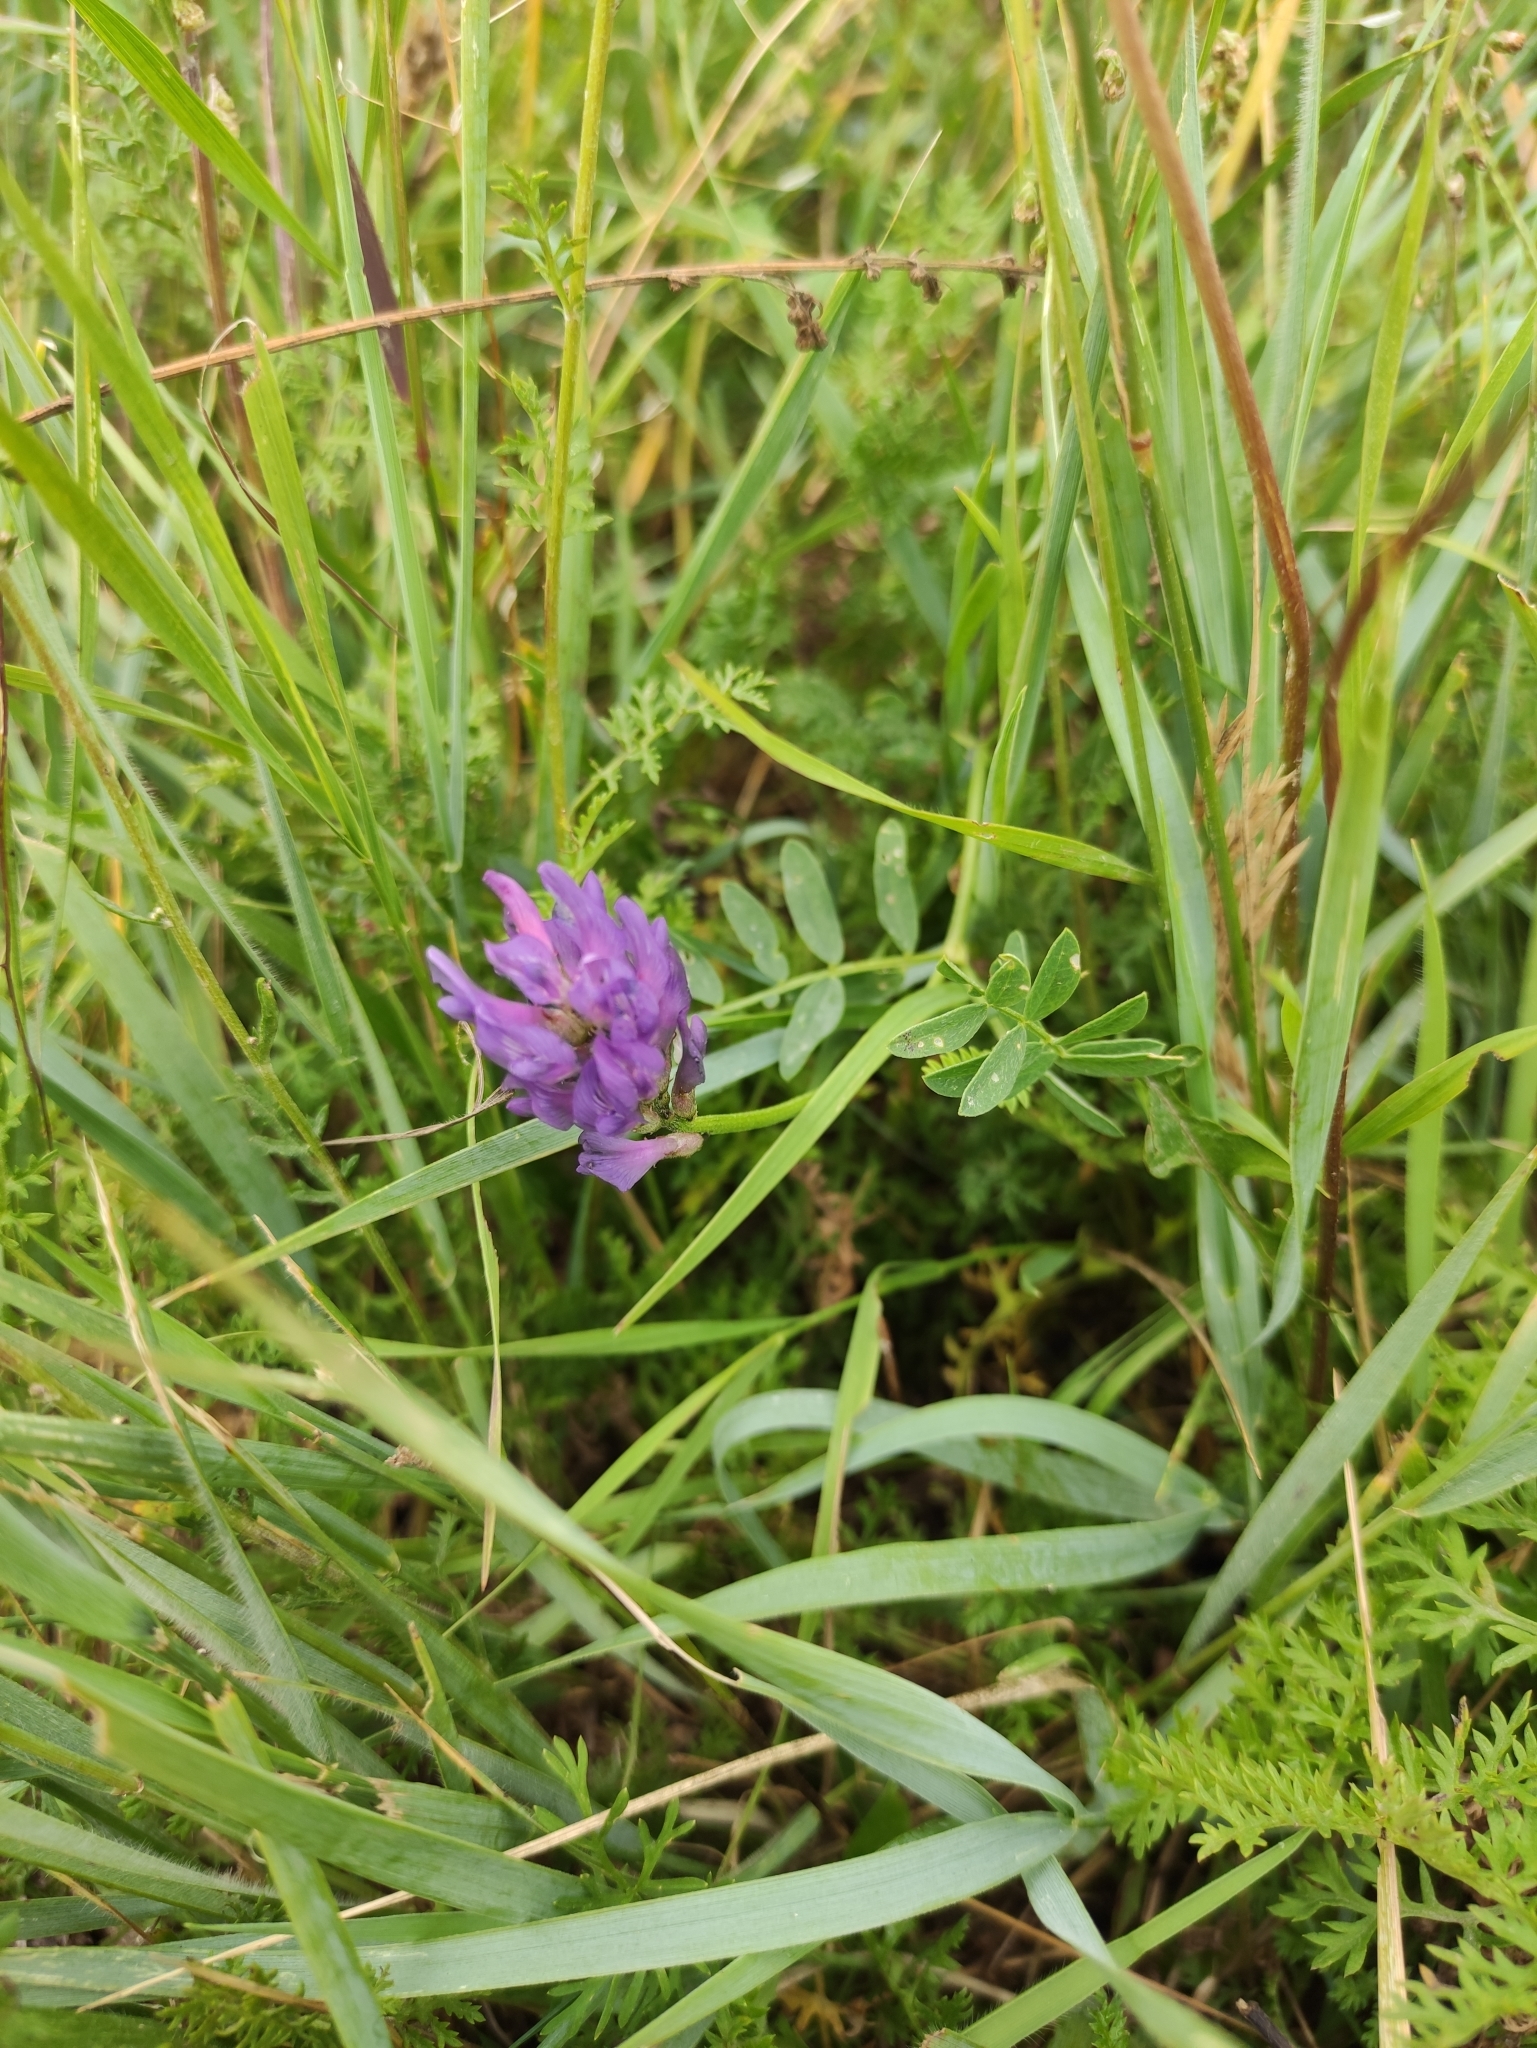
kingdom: Plantae
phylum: Tracheophyta
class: Magnoliopsida
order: Fabales
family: Fabaceae
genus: Astragalus
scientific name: Astragalus laxmannii
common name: Laxmann's milk-vetch
